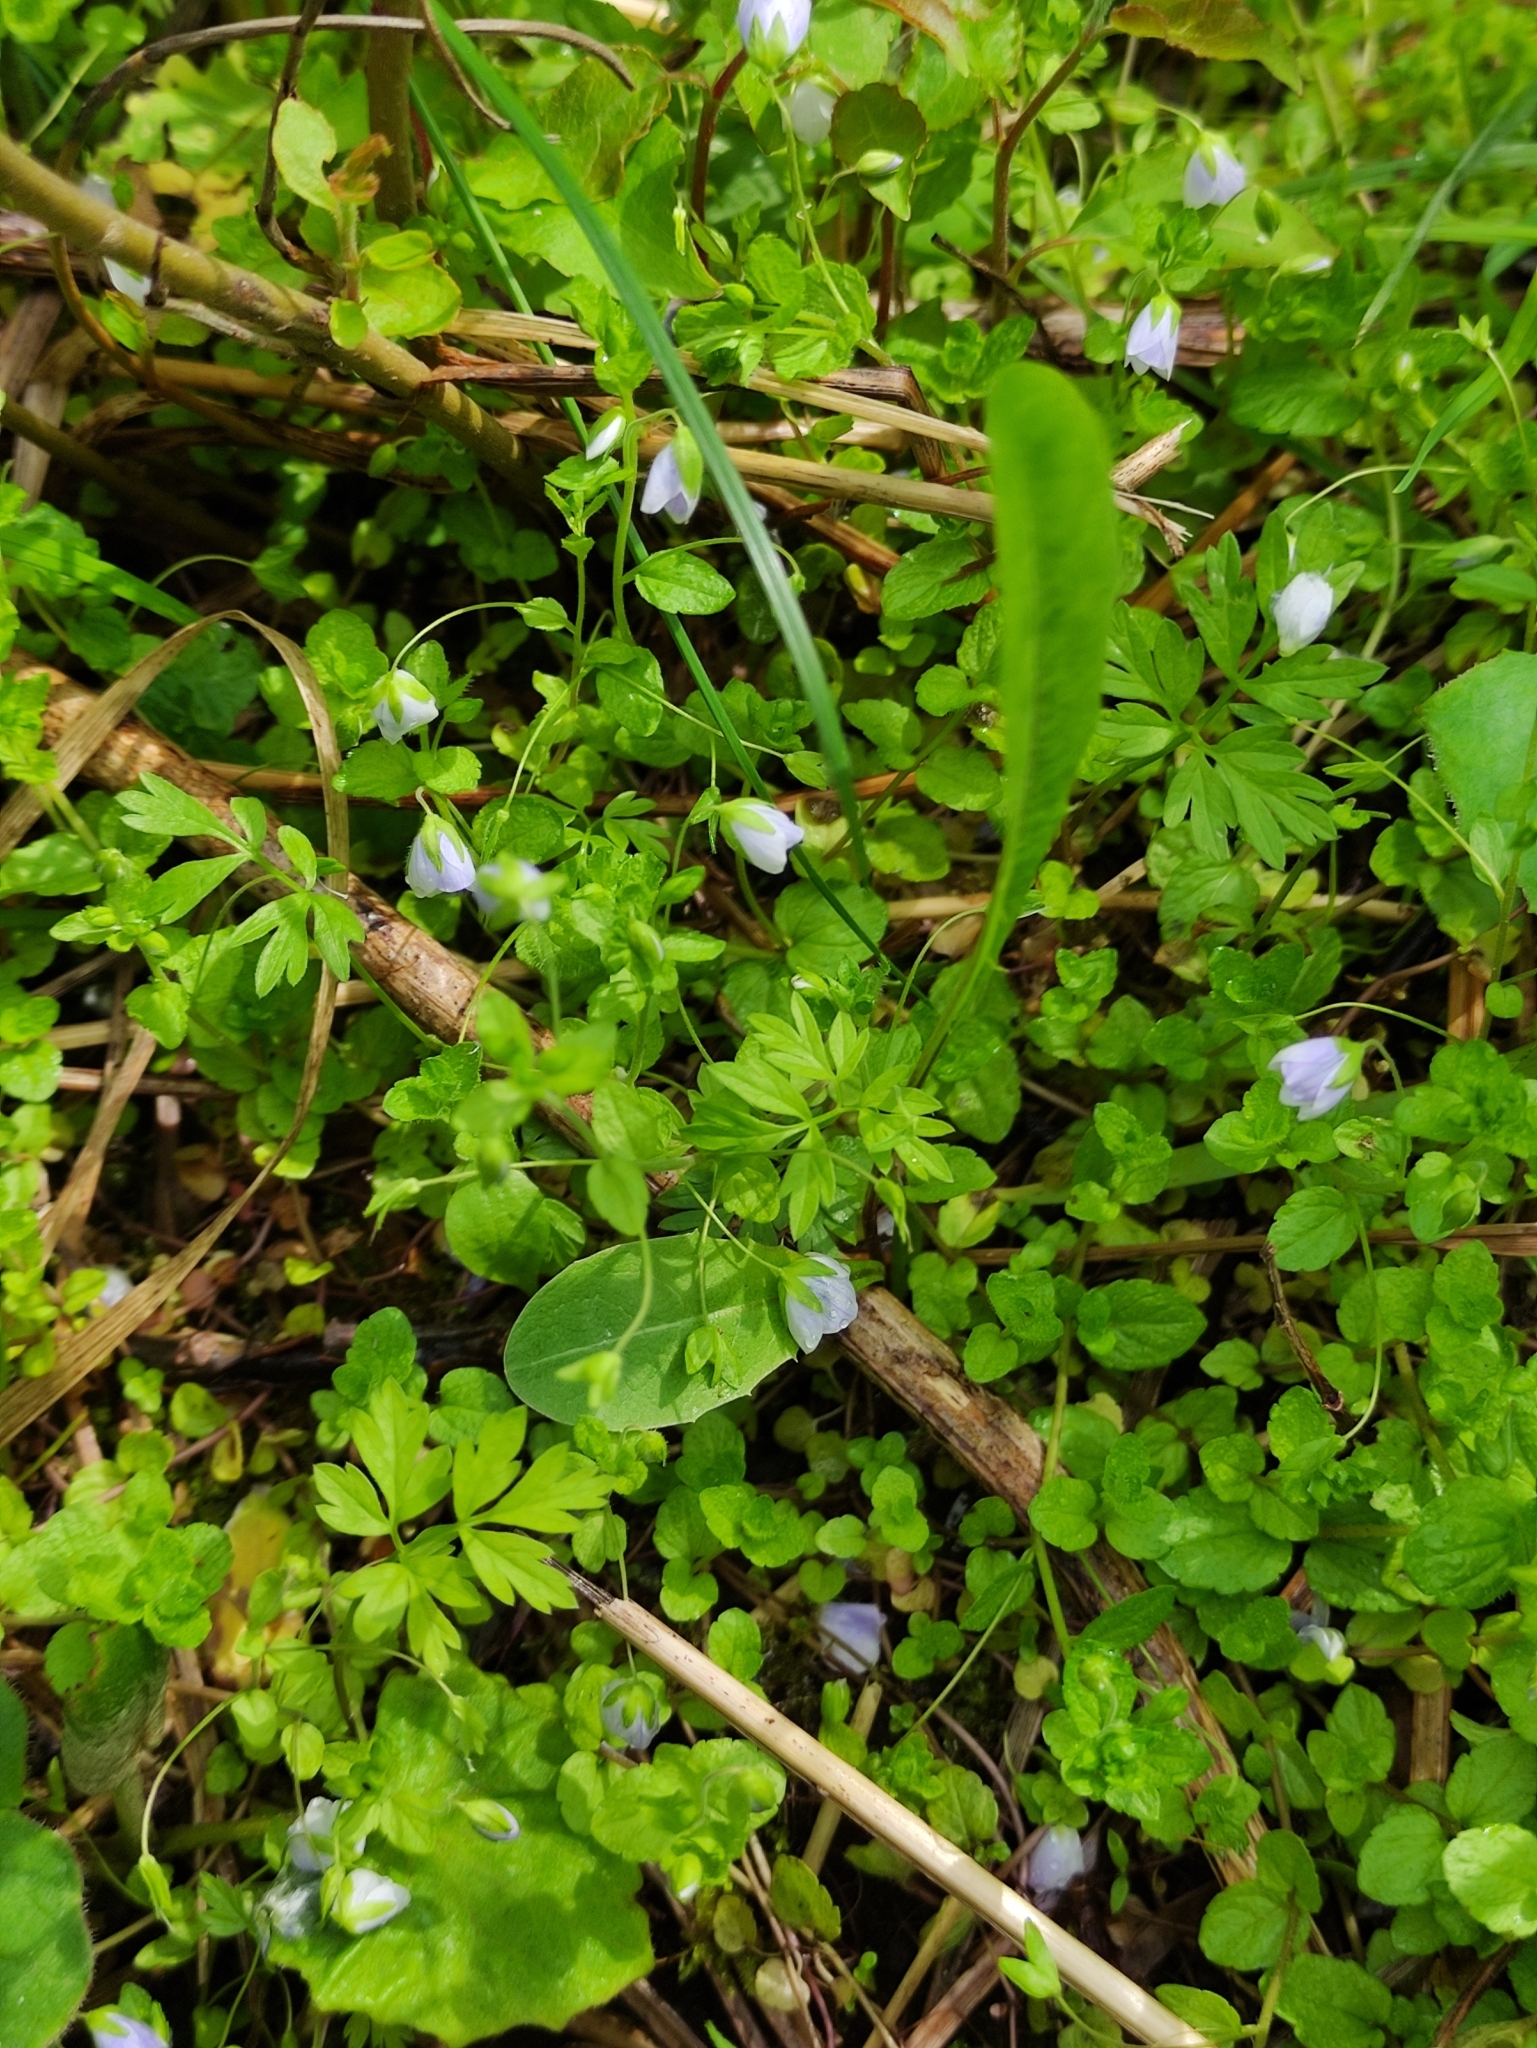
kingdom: Plantae
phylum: Tracheophyta
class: Magnoliopsida
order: Lamiales
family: Plantaginaceae
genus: Veronica
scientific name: Veronica filiformis
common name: Slender speedwell
